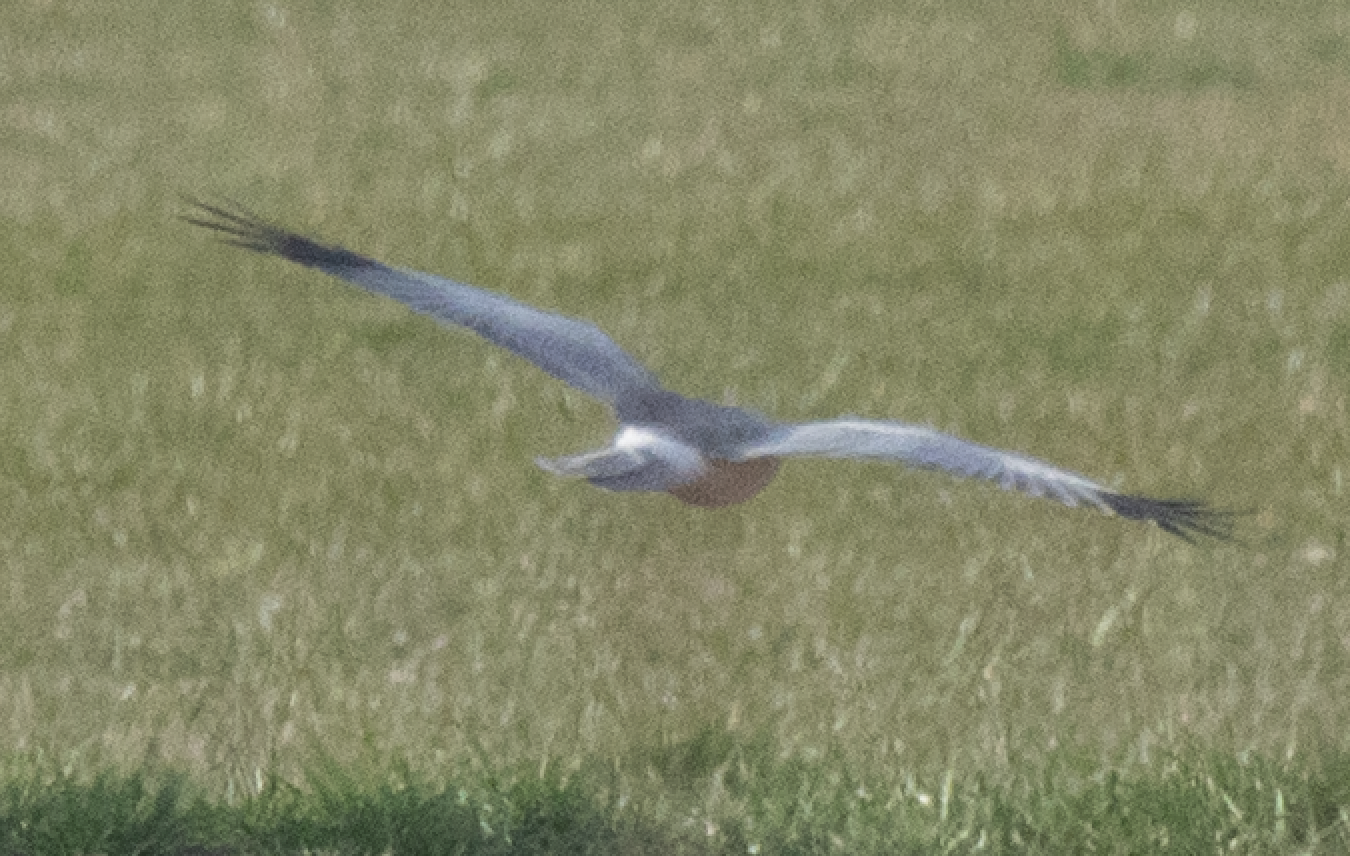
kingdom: Animalia
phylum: Chordata
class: Aves
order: Accipitriformes
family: Accipitridae
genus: Circus
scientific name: Circus cyaneus
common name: Hen harrier
